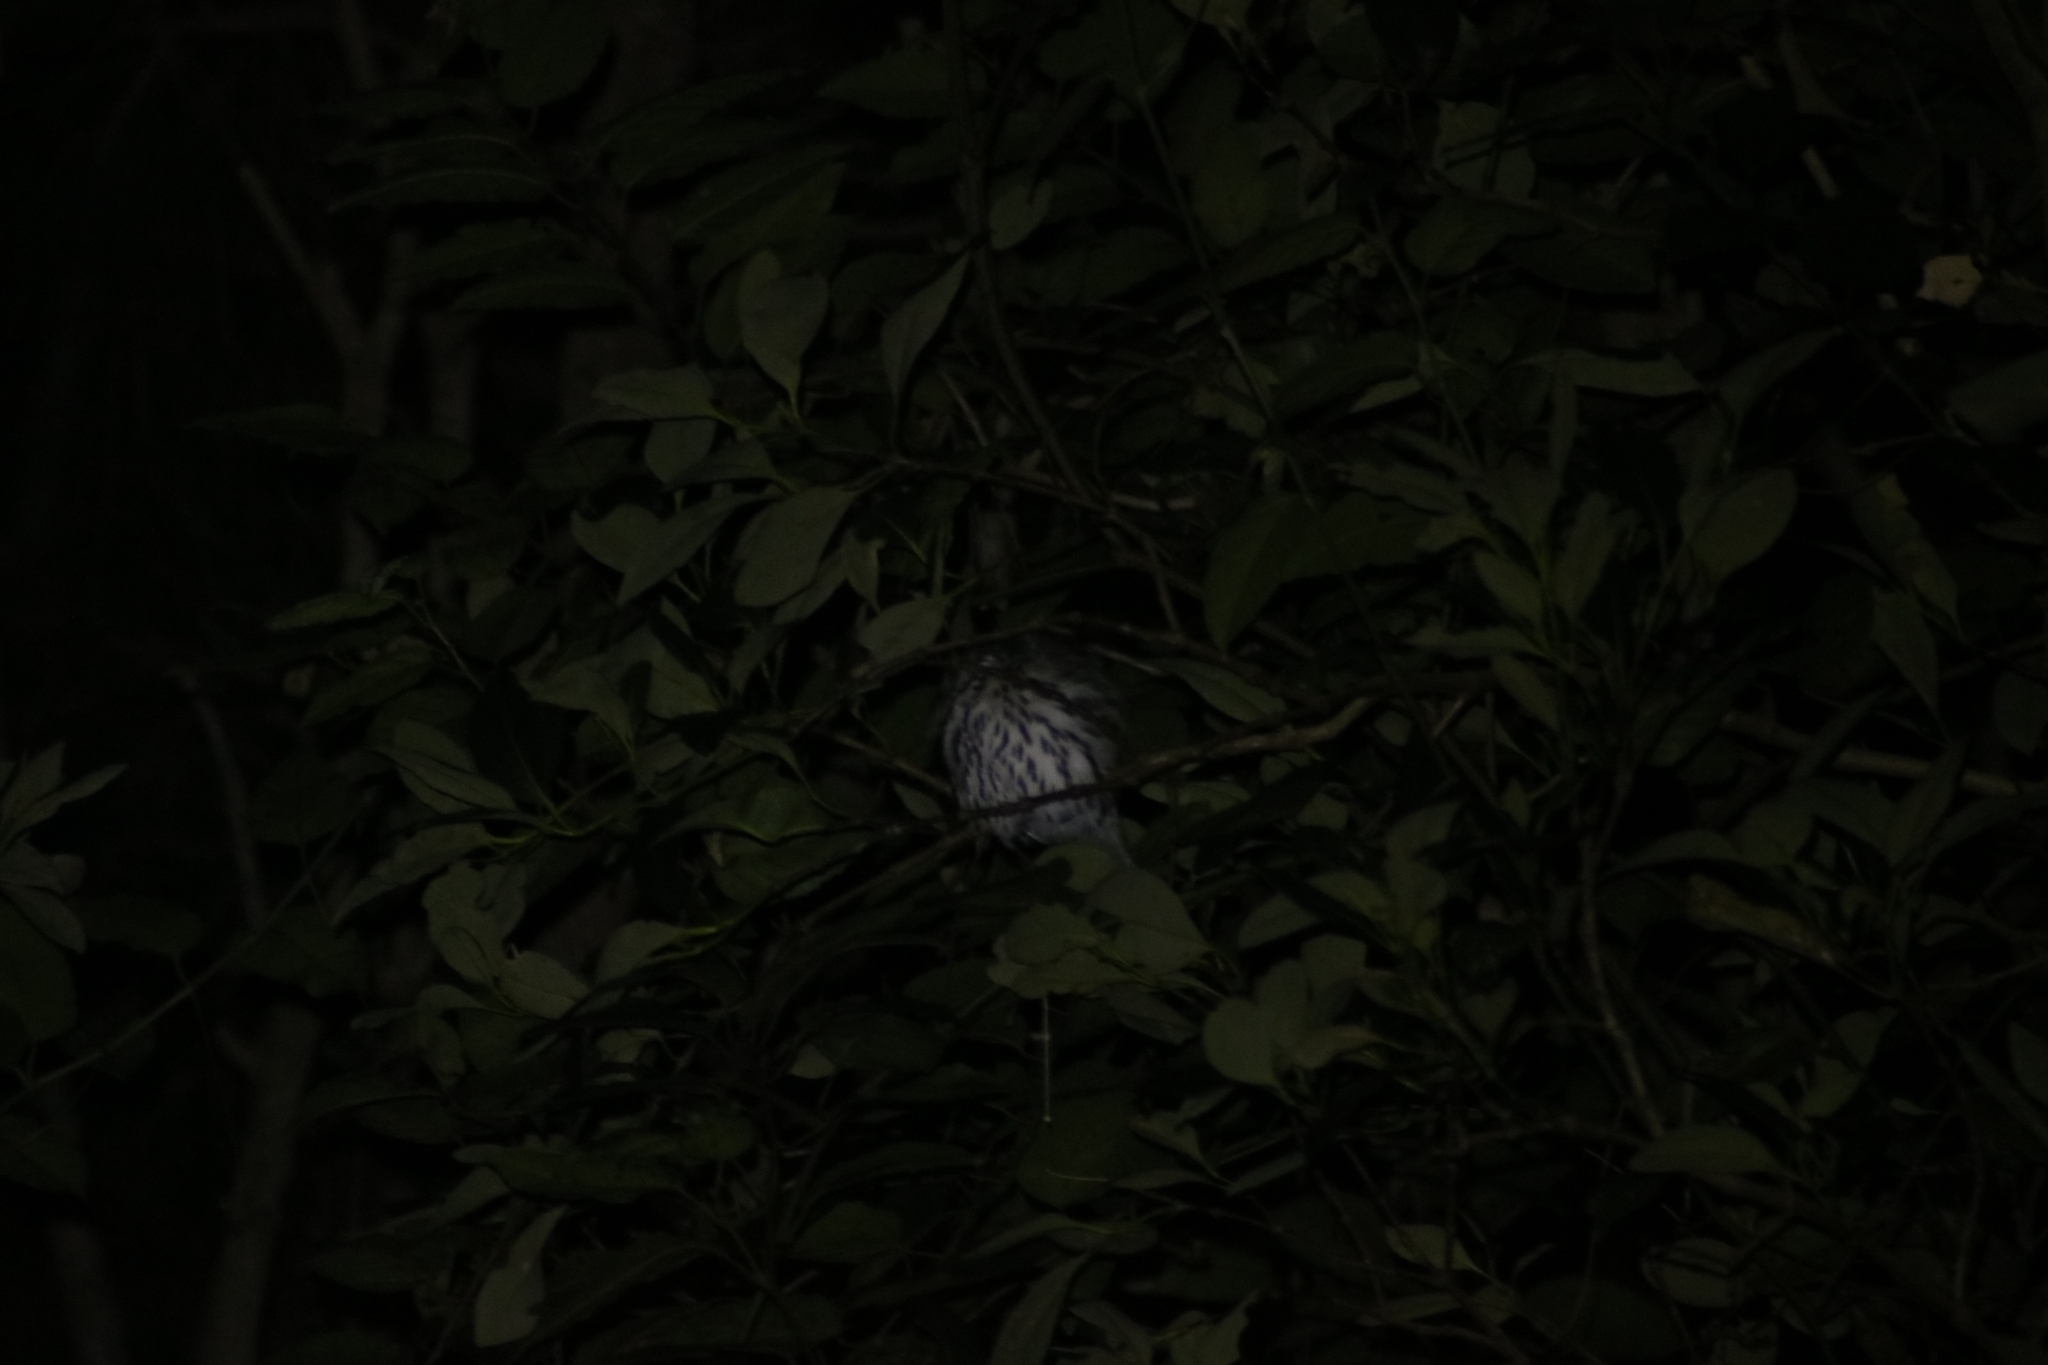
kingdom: Animalia
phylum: Chordata
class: Aves
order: Strigiformes
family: Strigidae
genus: Ninox
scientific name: Ninox connivens
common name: Barking owl
